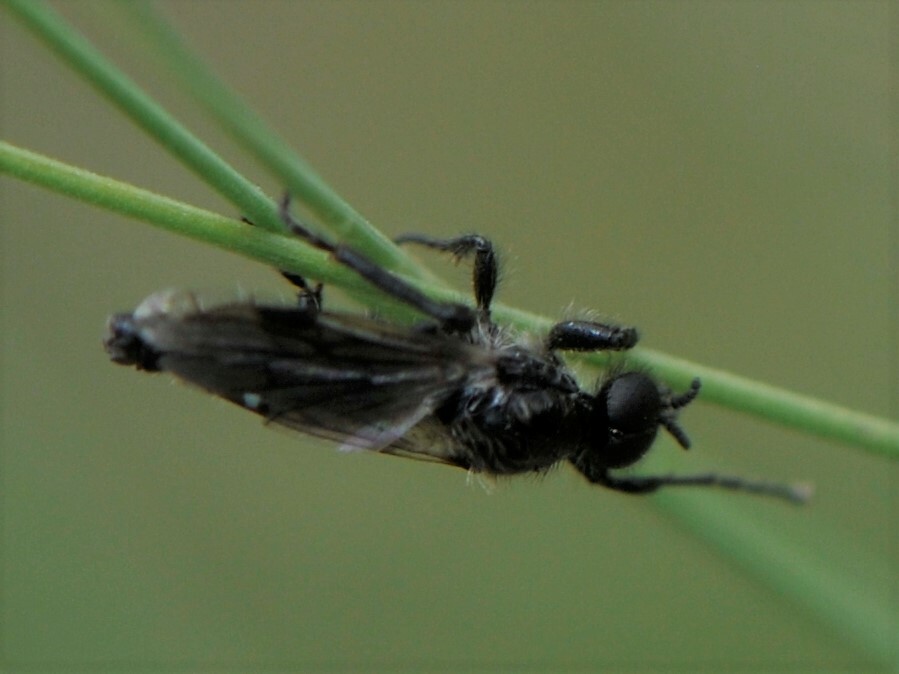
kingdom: Animalia
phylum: Arthropoda
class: Insecta
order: Diptera
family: Bibionidae
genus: Bibio
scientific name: Bibio albipennis
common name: White-winged march fly
